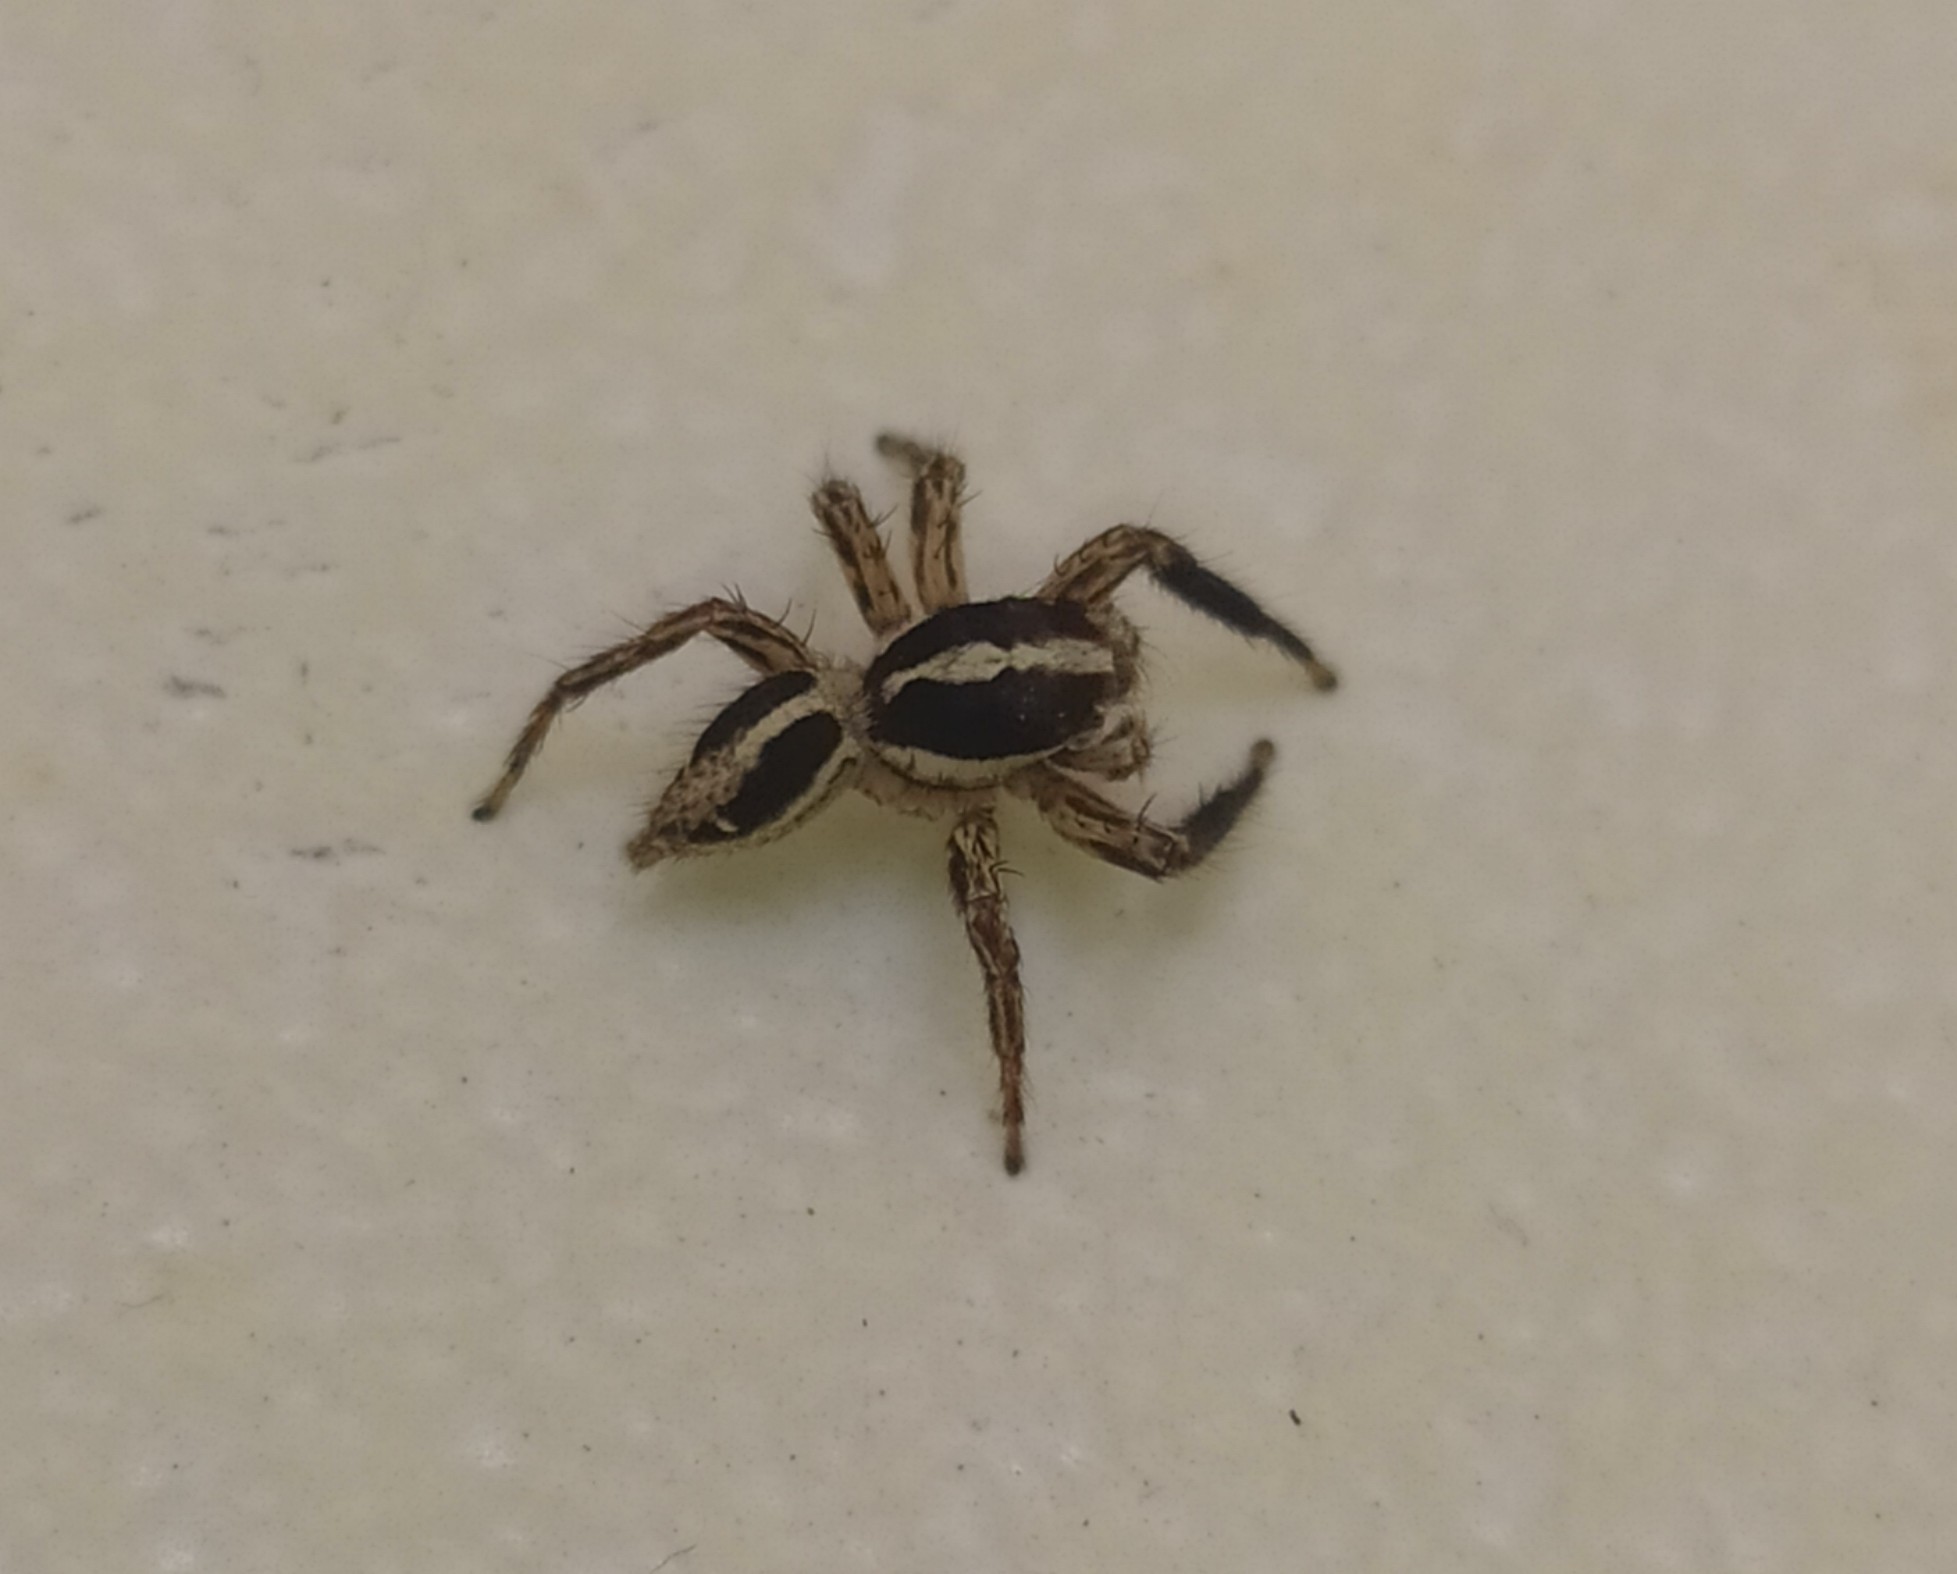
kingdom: Animalia
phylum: Arthropoda
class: Arachnida
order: Araneae
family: Salticidae
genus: Plexippus
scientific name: Plexippus paykulli
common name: Pantropical jumper
